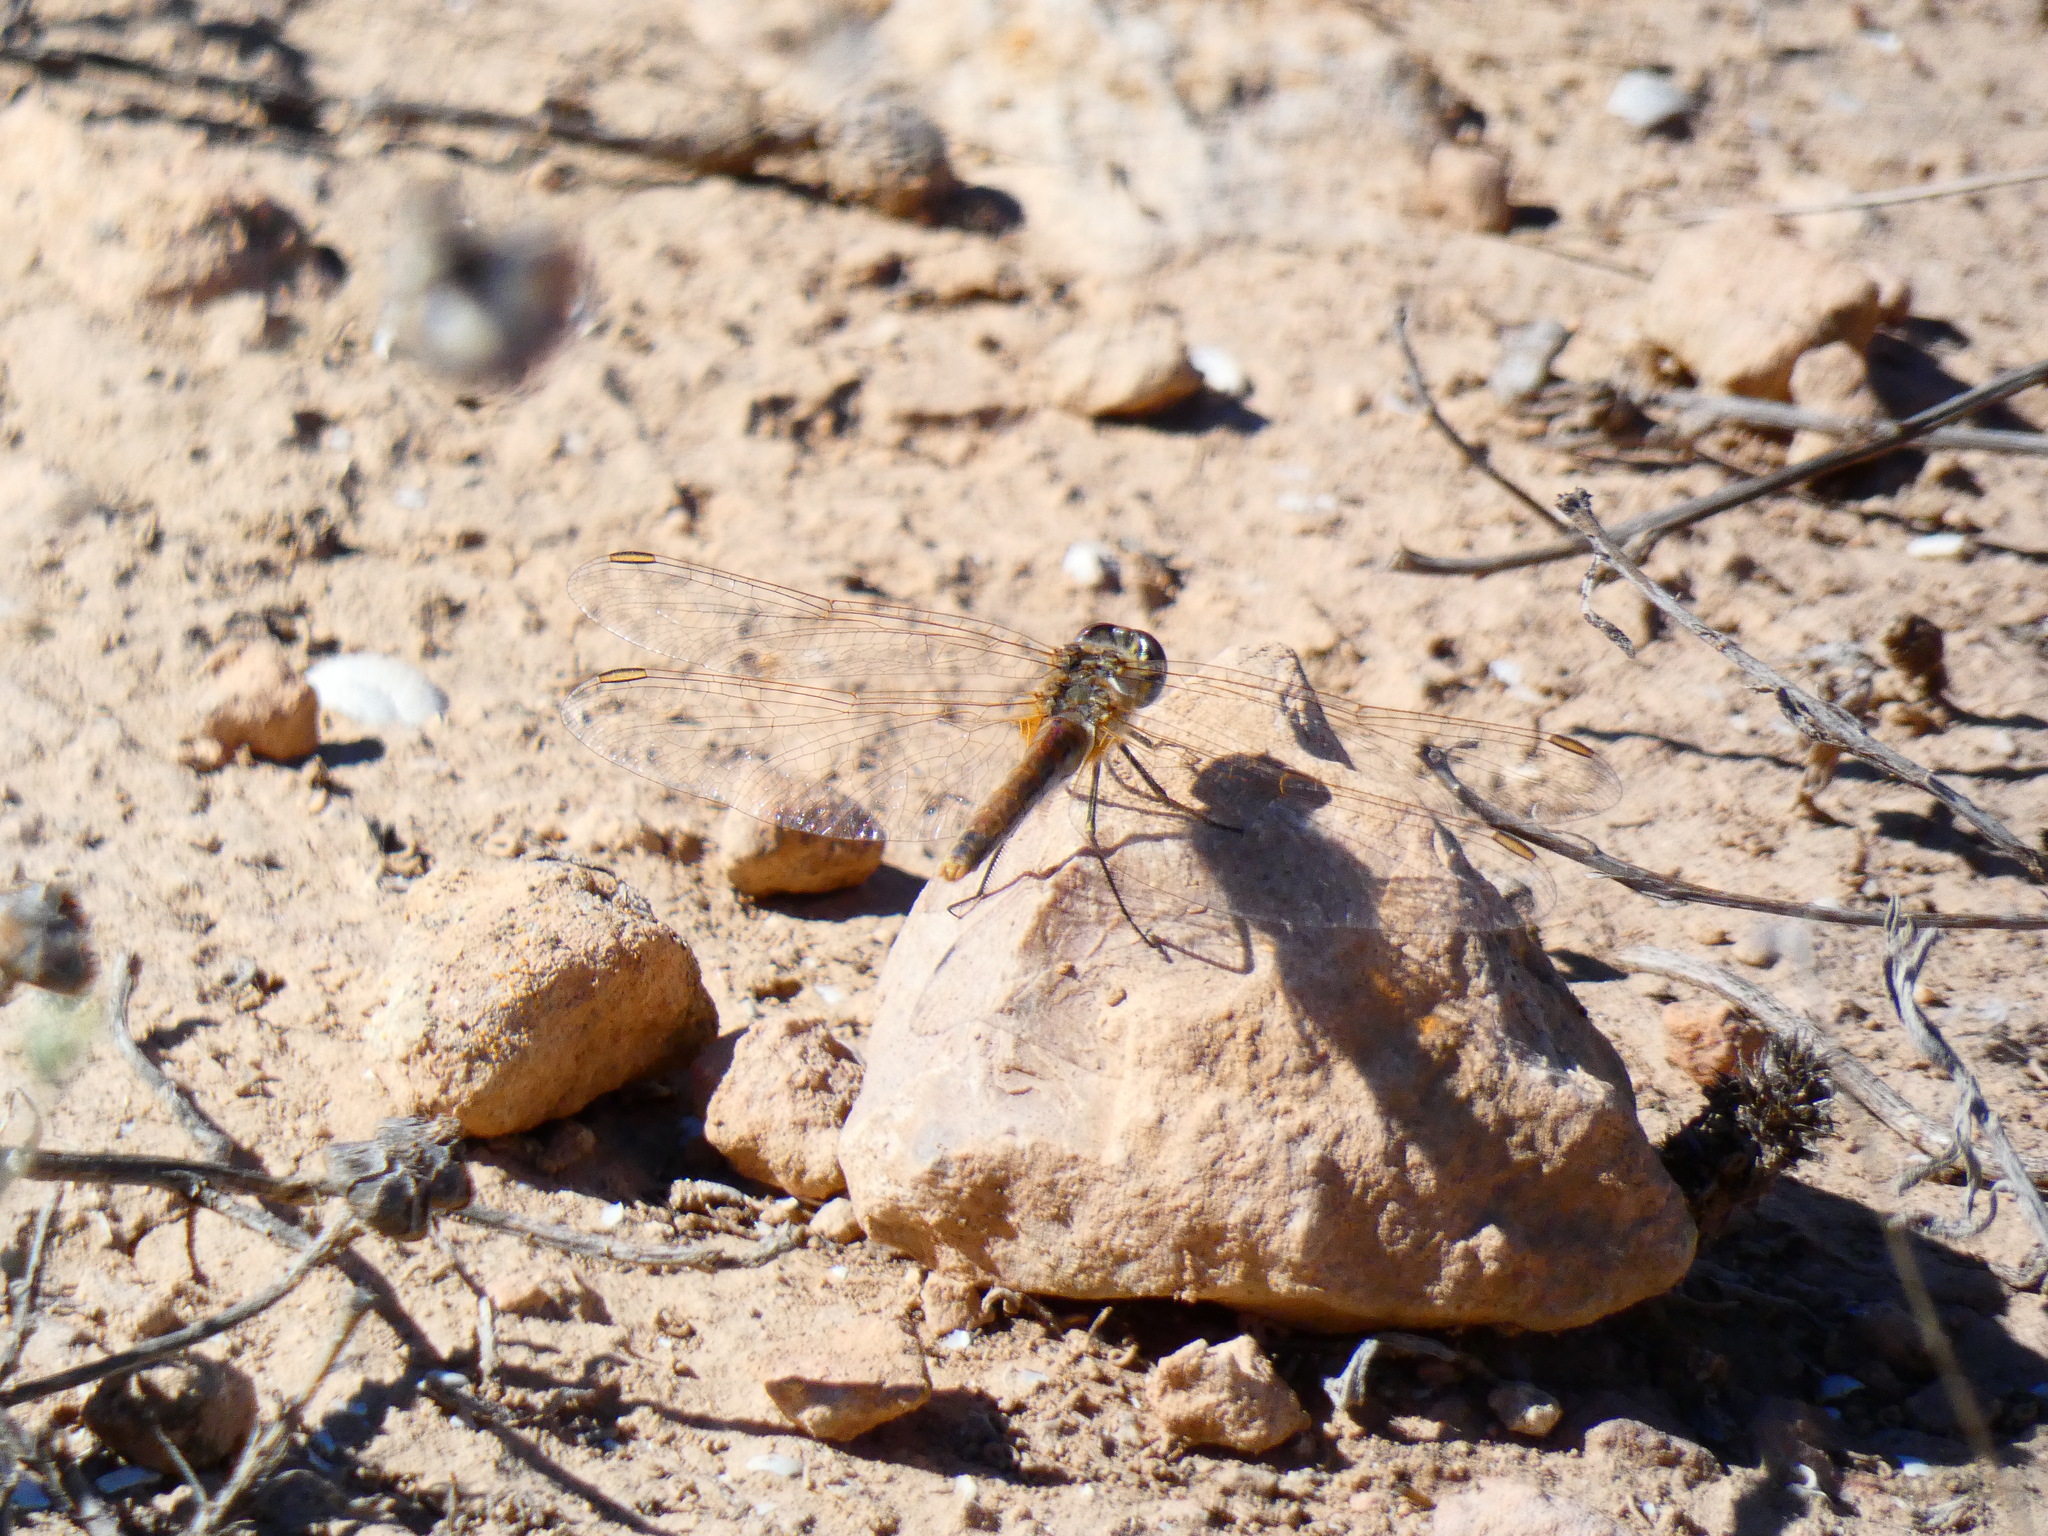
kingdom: Animalia
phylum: Arthropoda
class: Insecta
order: Odonata
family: Libellulidae
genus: Sympetrum
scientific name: Sympetrum fonscolombii
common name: Red-veined darter
